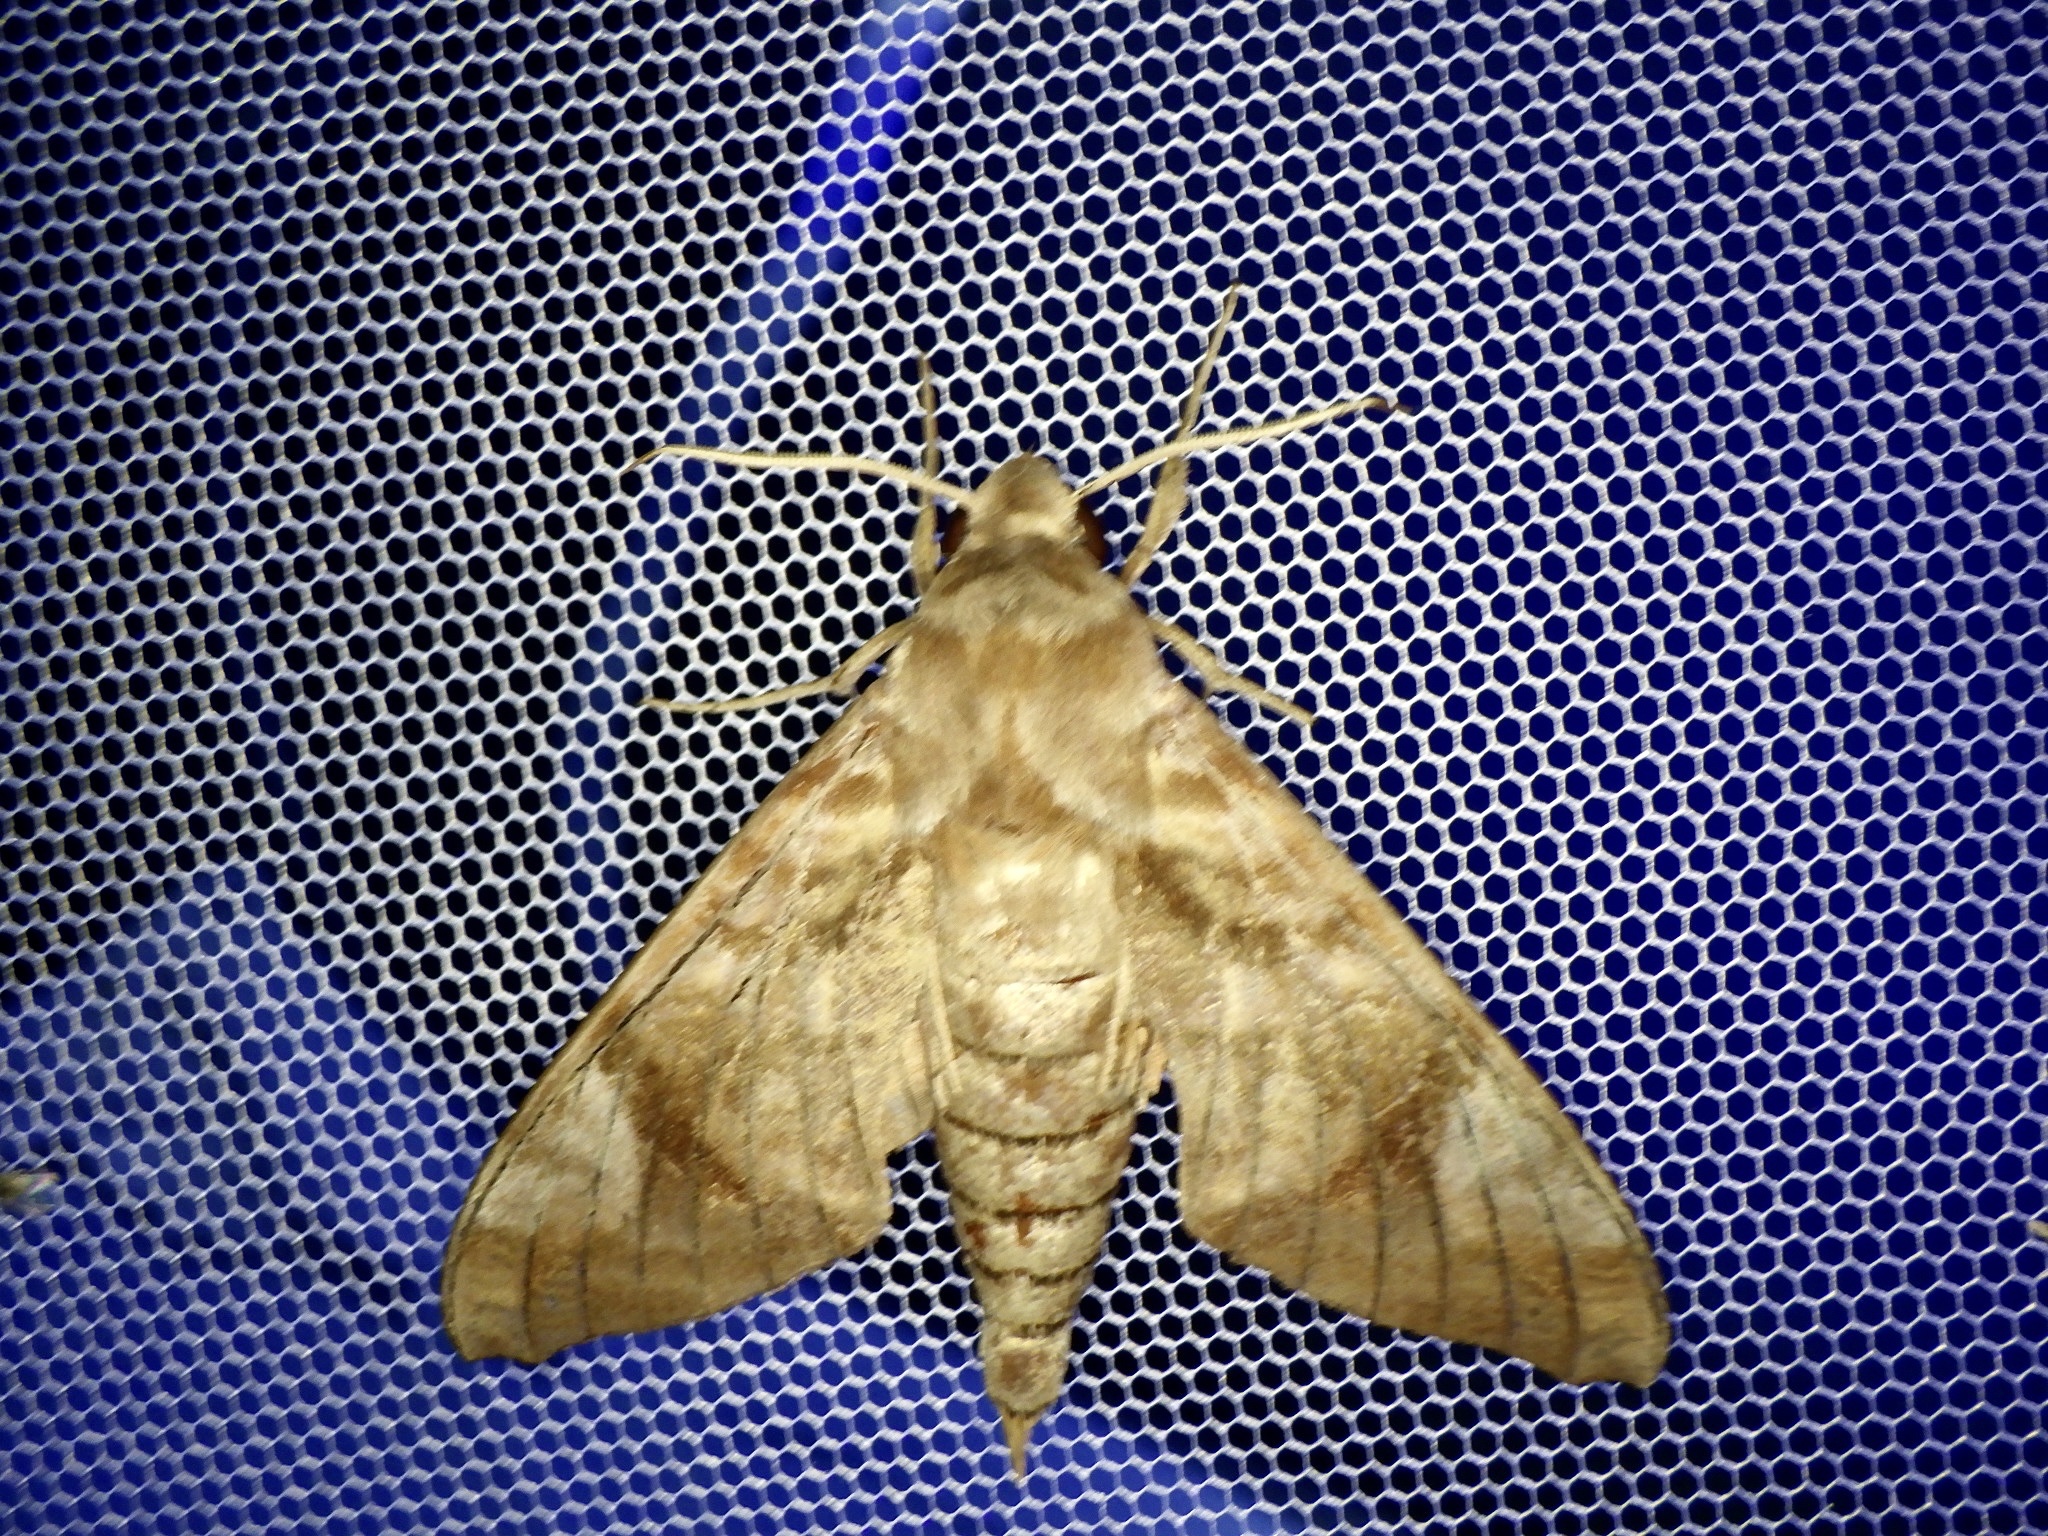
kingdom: Animalia
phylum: Arthropoda
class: Insecta
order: Lepidoptera
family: Sphingidae
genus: Acosmeryx
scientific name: Acosmeryx castanea
